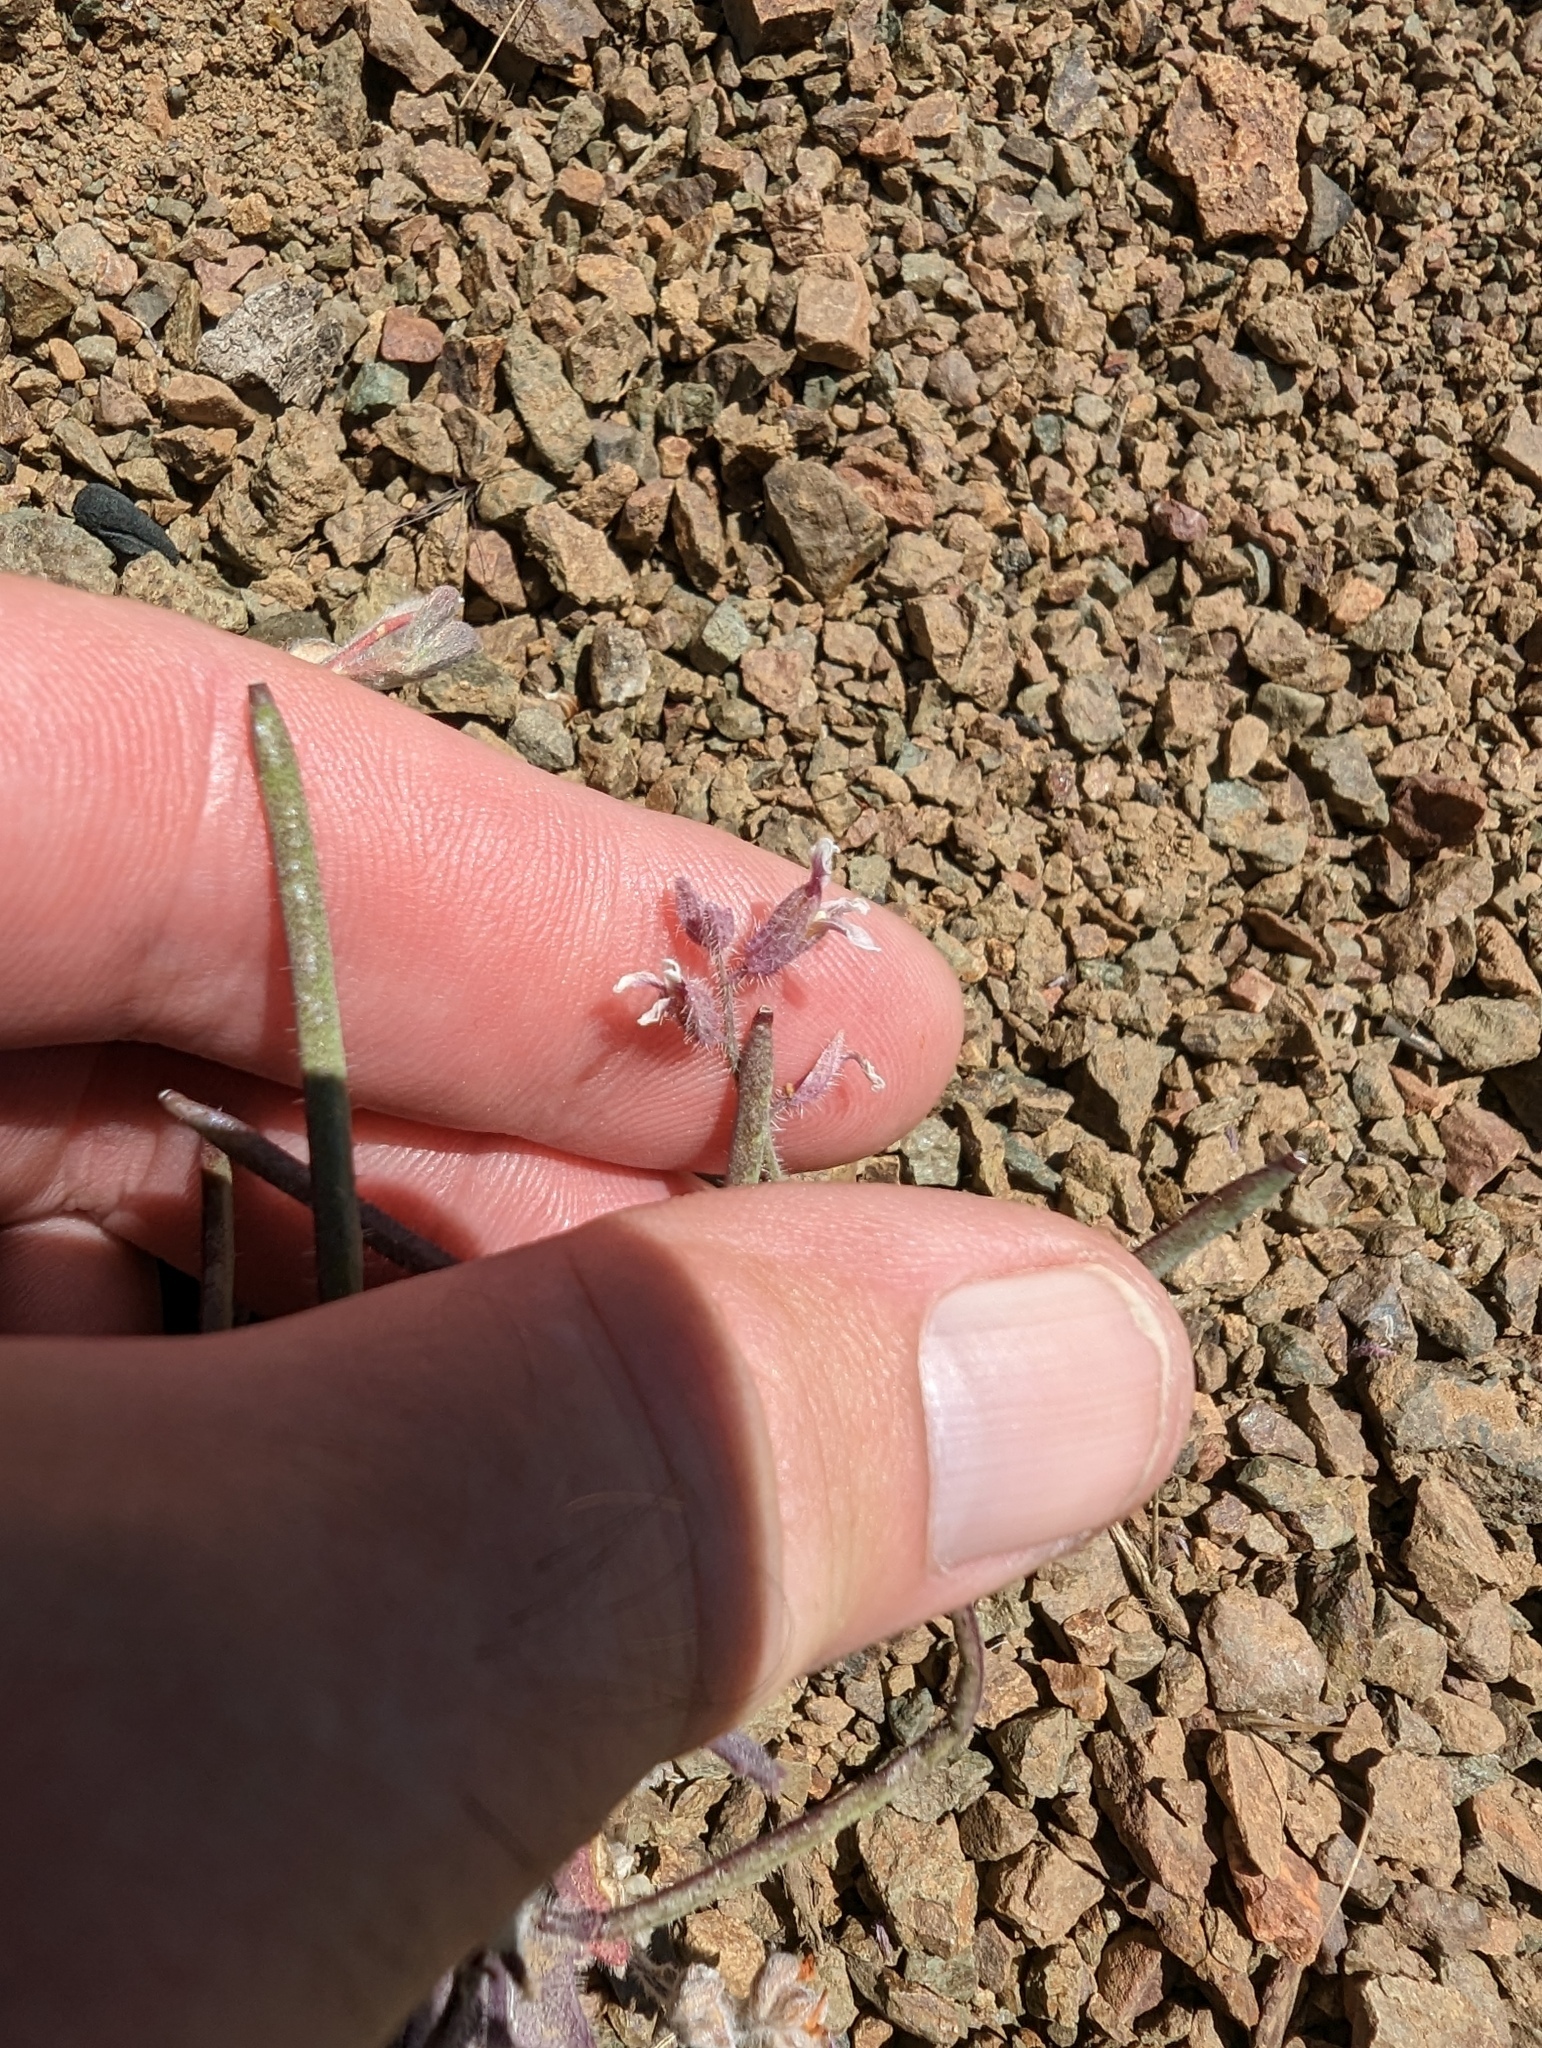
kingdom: Plantae
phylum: Tracheophyta
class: Magnoliopsida
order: Brassicales
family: Brassicaceae
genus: Streptanthus
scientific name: Streptanthus hispidus
